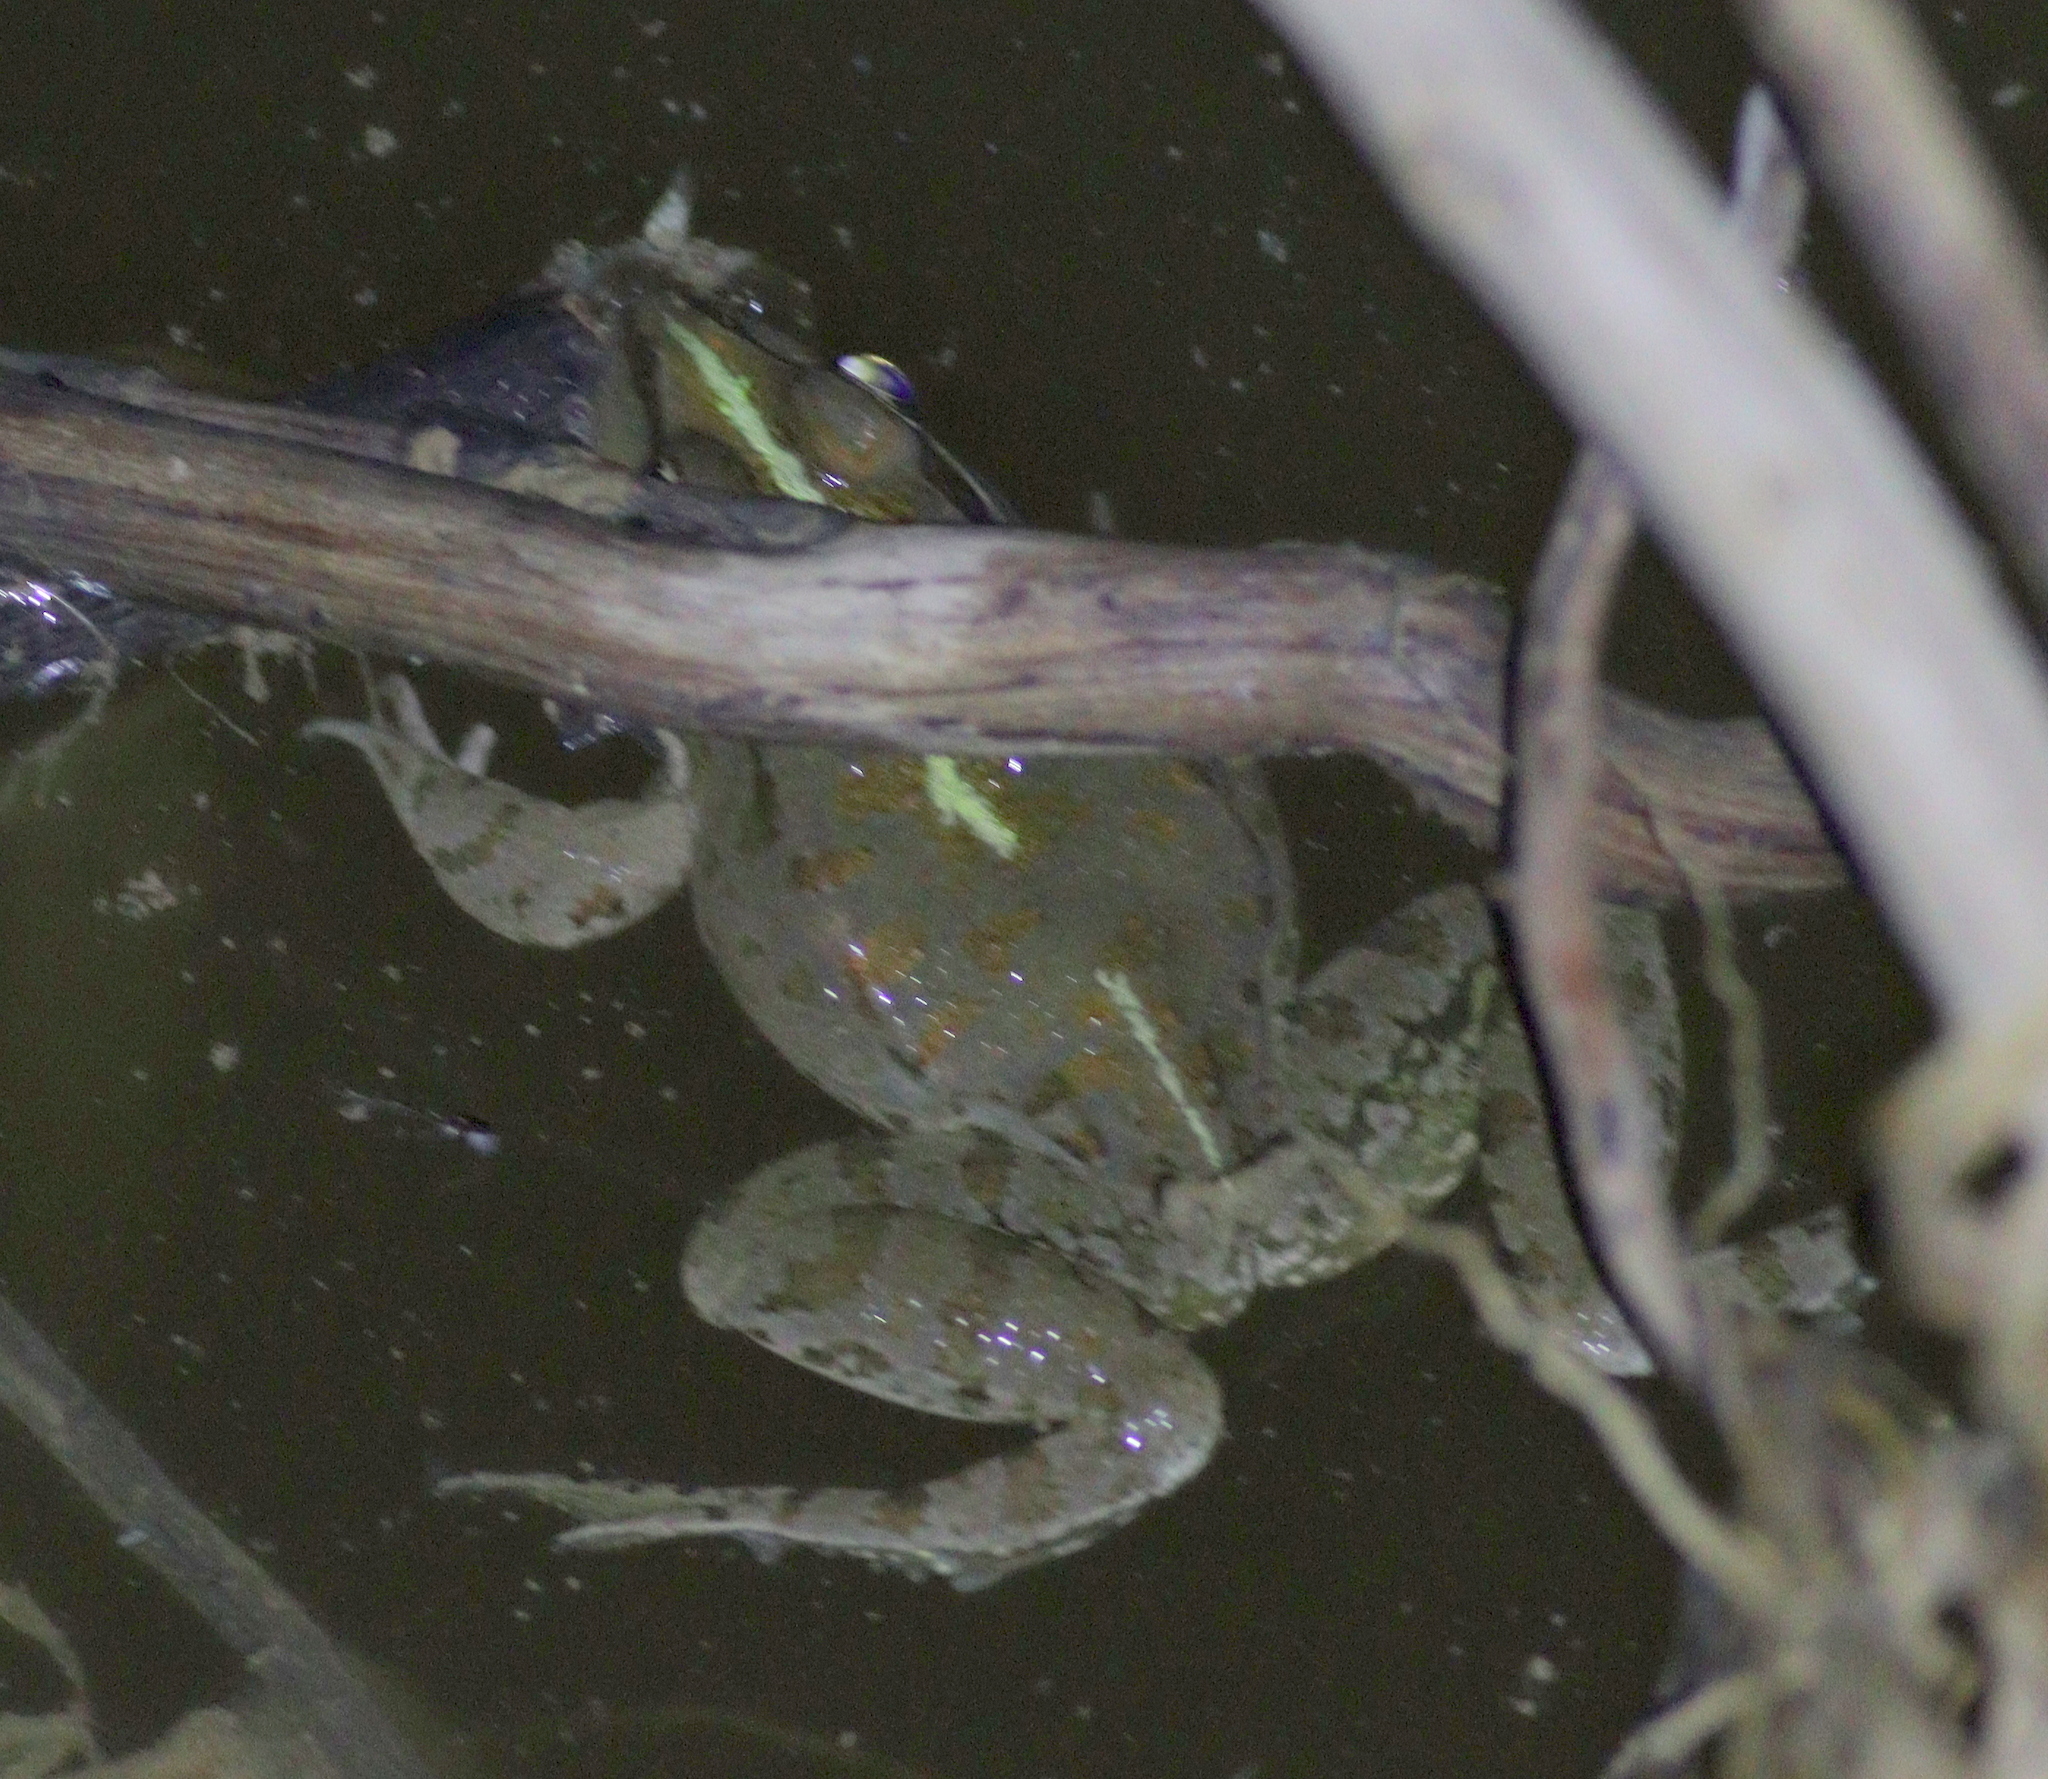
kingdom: Animalia
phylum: Chordata
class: Amphibia
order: Anura
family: Ranidae
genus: Pelophylax
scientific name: Pelophylax ridibundus
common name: Marsh frog
